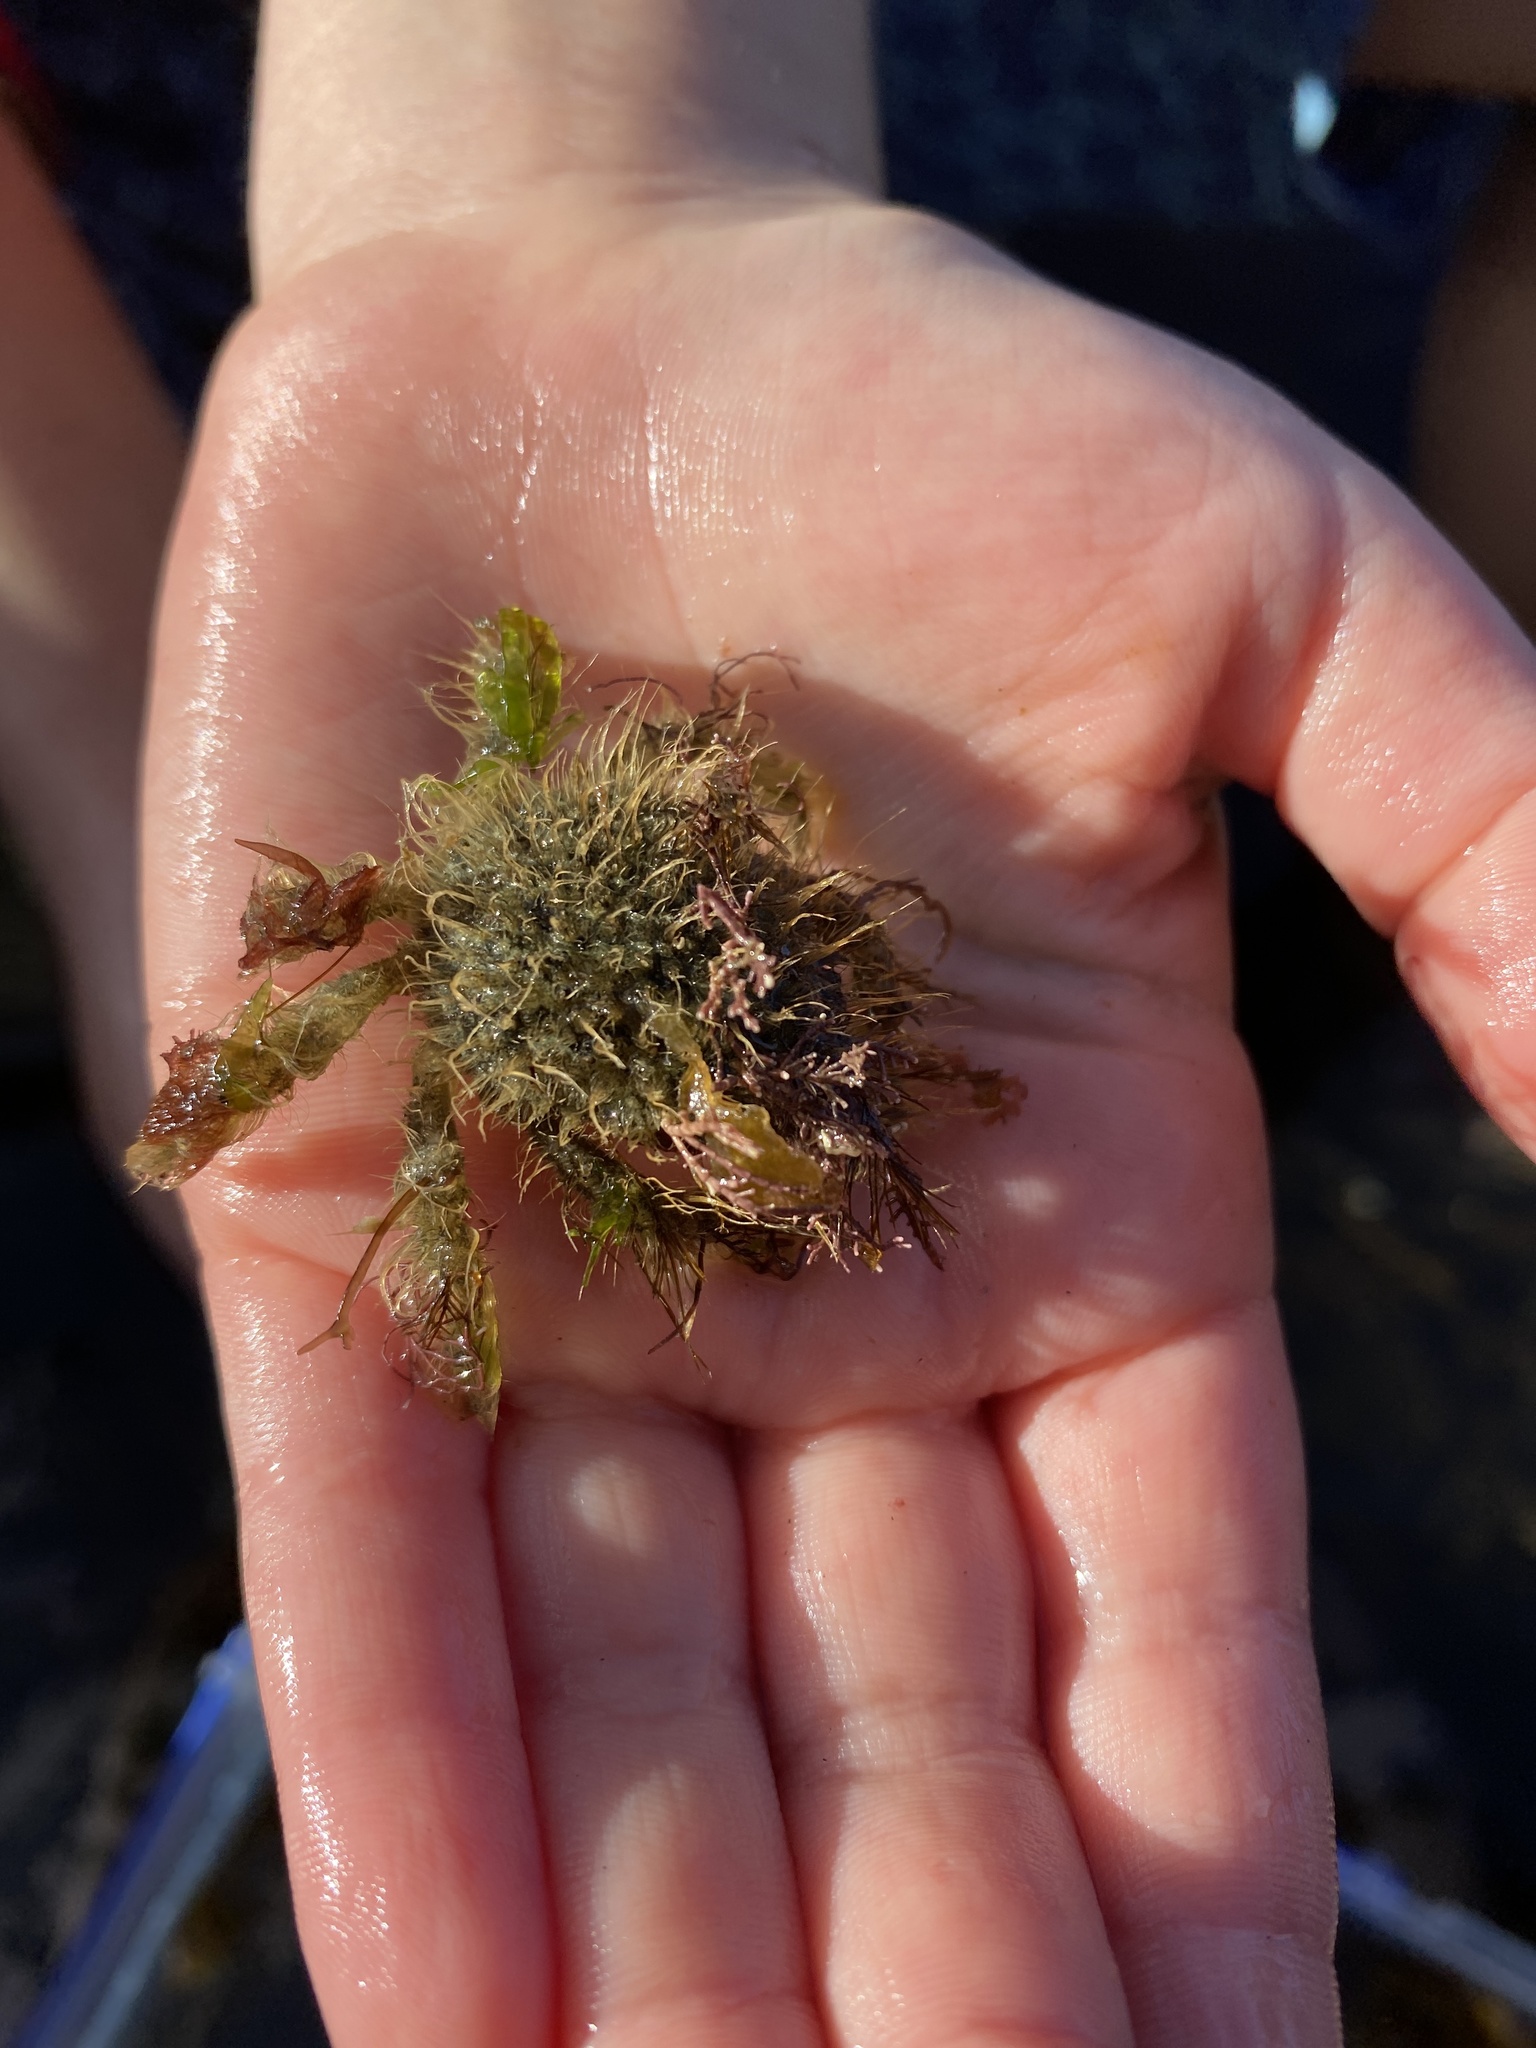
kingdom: Animalia
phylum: Arthropoda
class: Malacostraca
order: Decapoda
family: Majidae
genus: Notomithrax
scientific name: Notomithrax ursus
